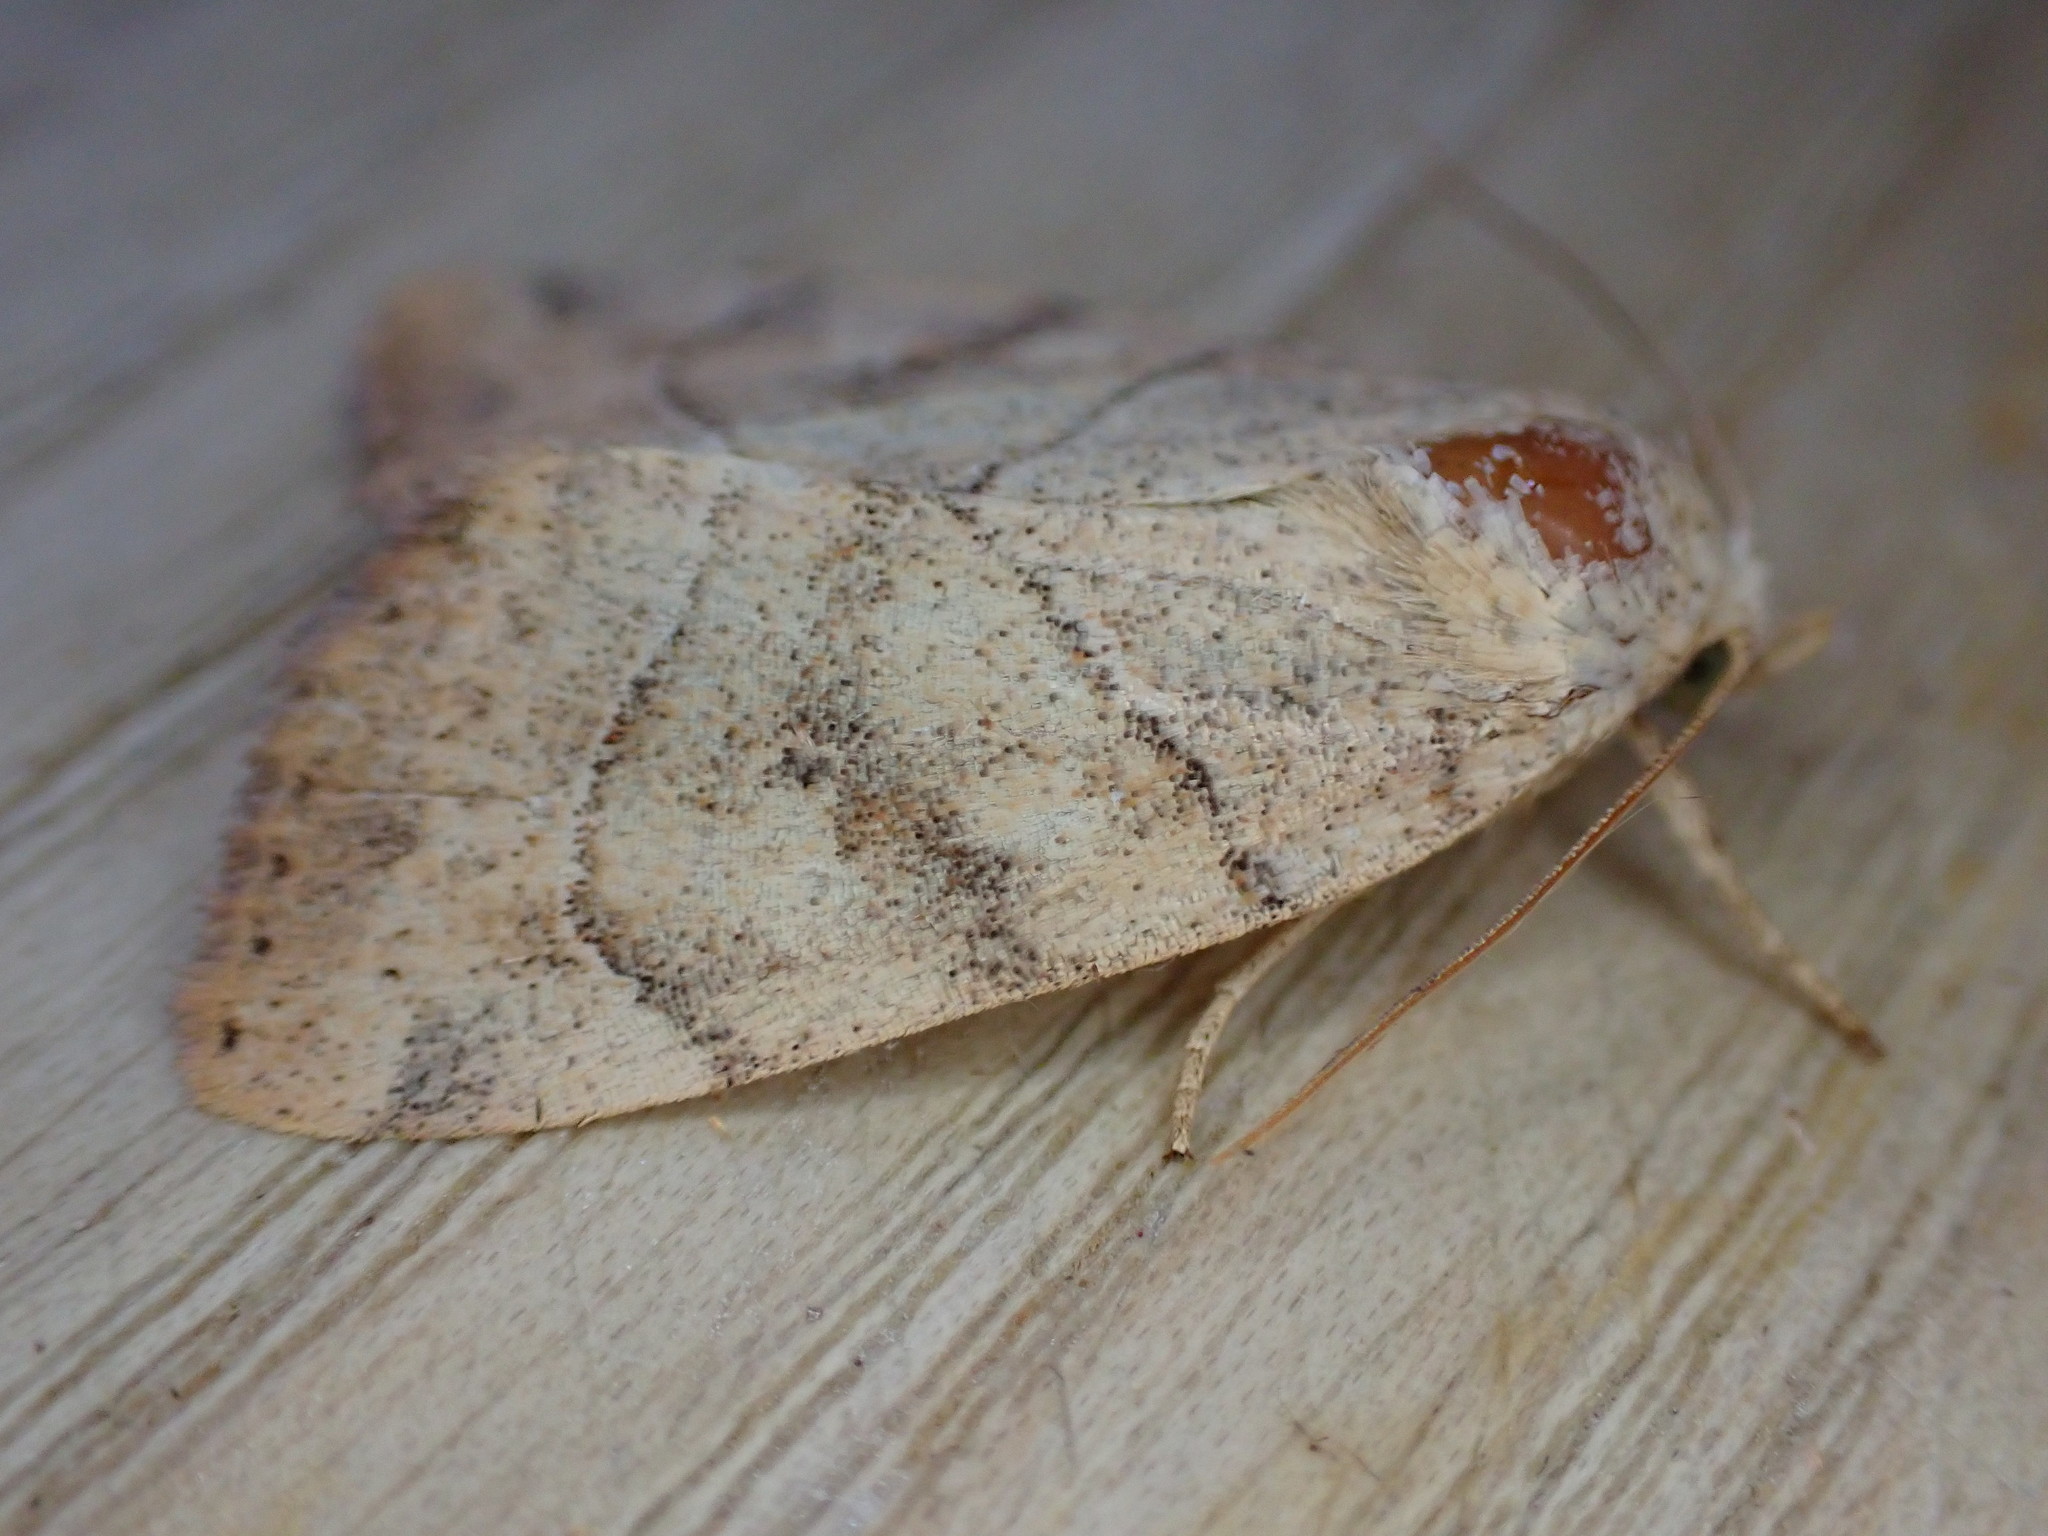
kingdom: Animalia
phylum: Arthropoda
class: Insecta
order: Lepidoptera
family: Noctuidae
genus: Cosmia
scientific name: Cosmia trapezina
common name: Dun-bar
